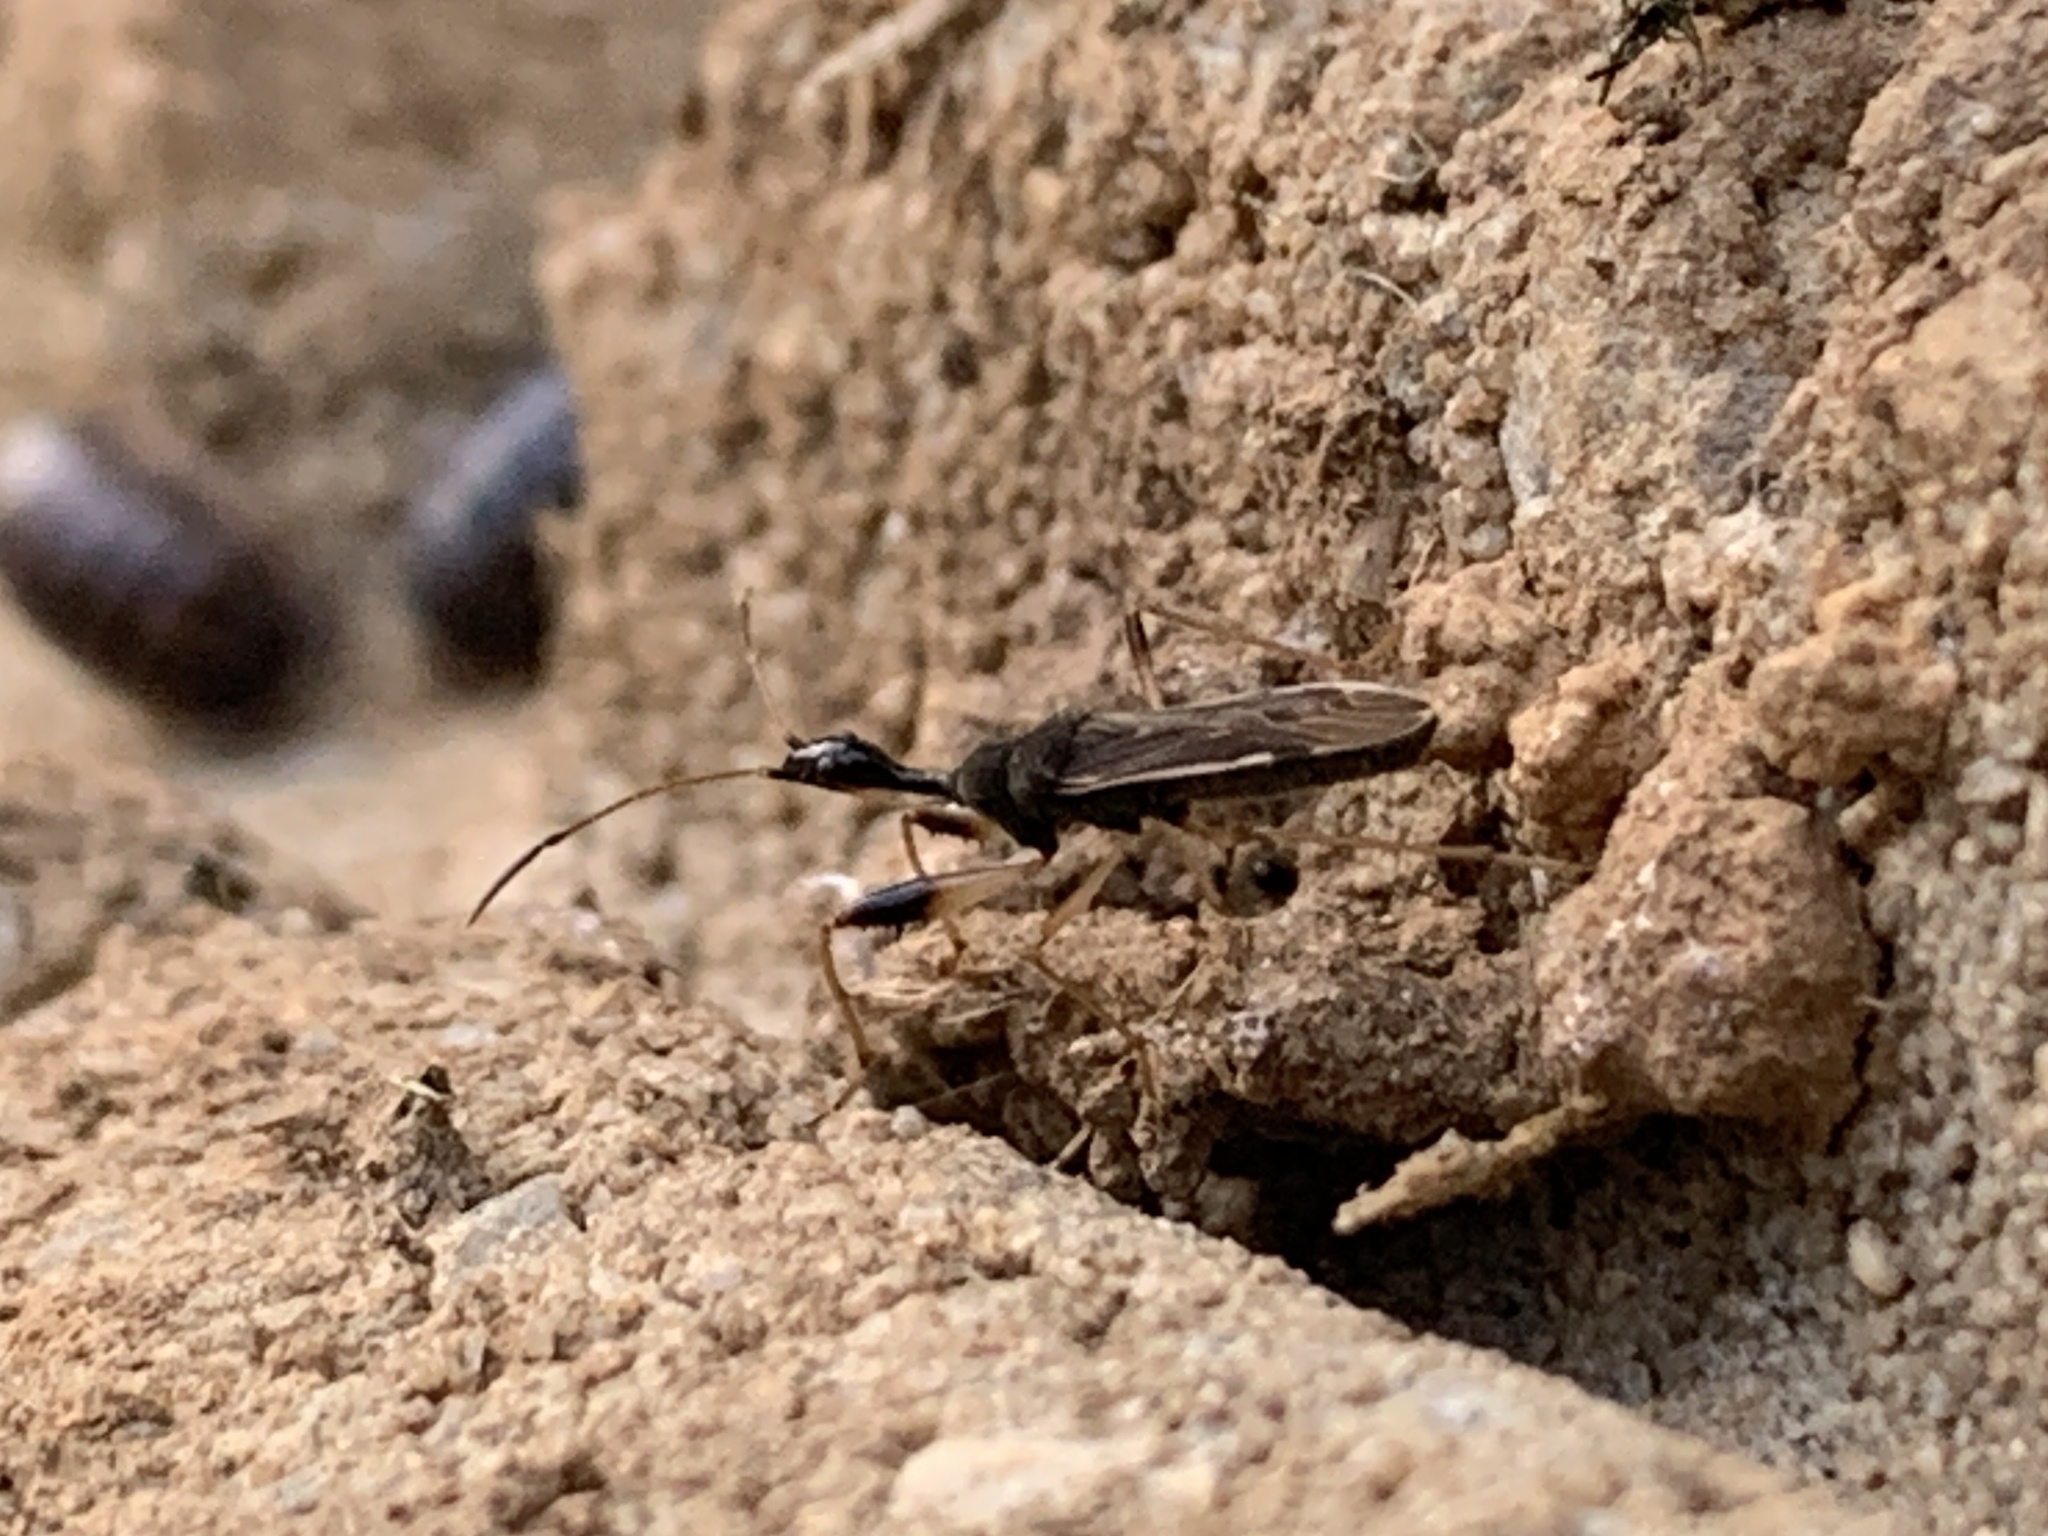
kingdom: Animalia
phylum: Arthropoda
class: Insecta
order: Hemiptera
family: Rhyparochromidae
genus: Myodocha
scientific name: Myodocha serripes
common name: Long-necked seed bug
